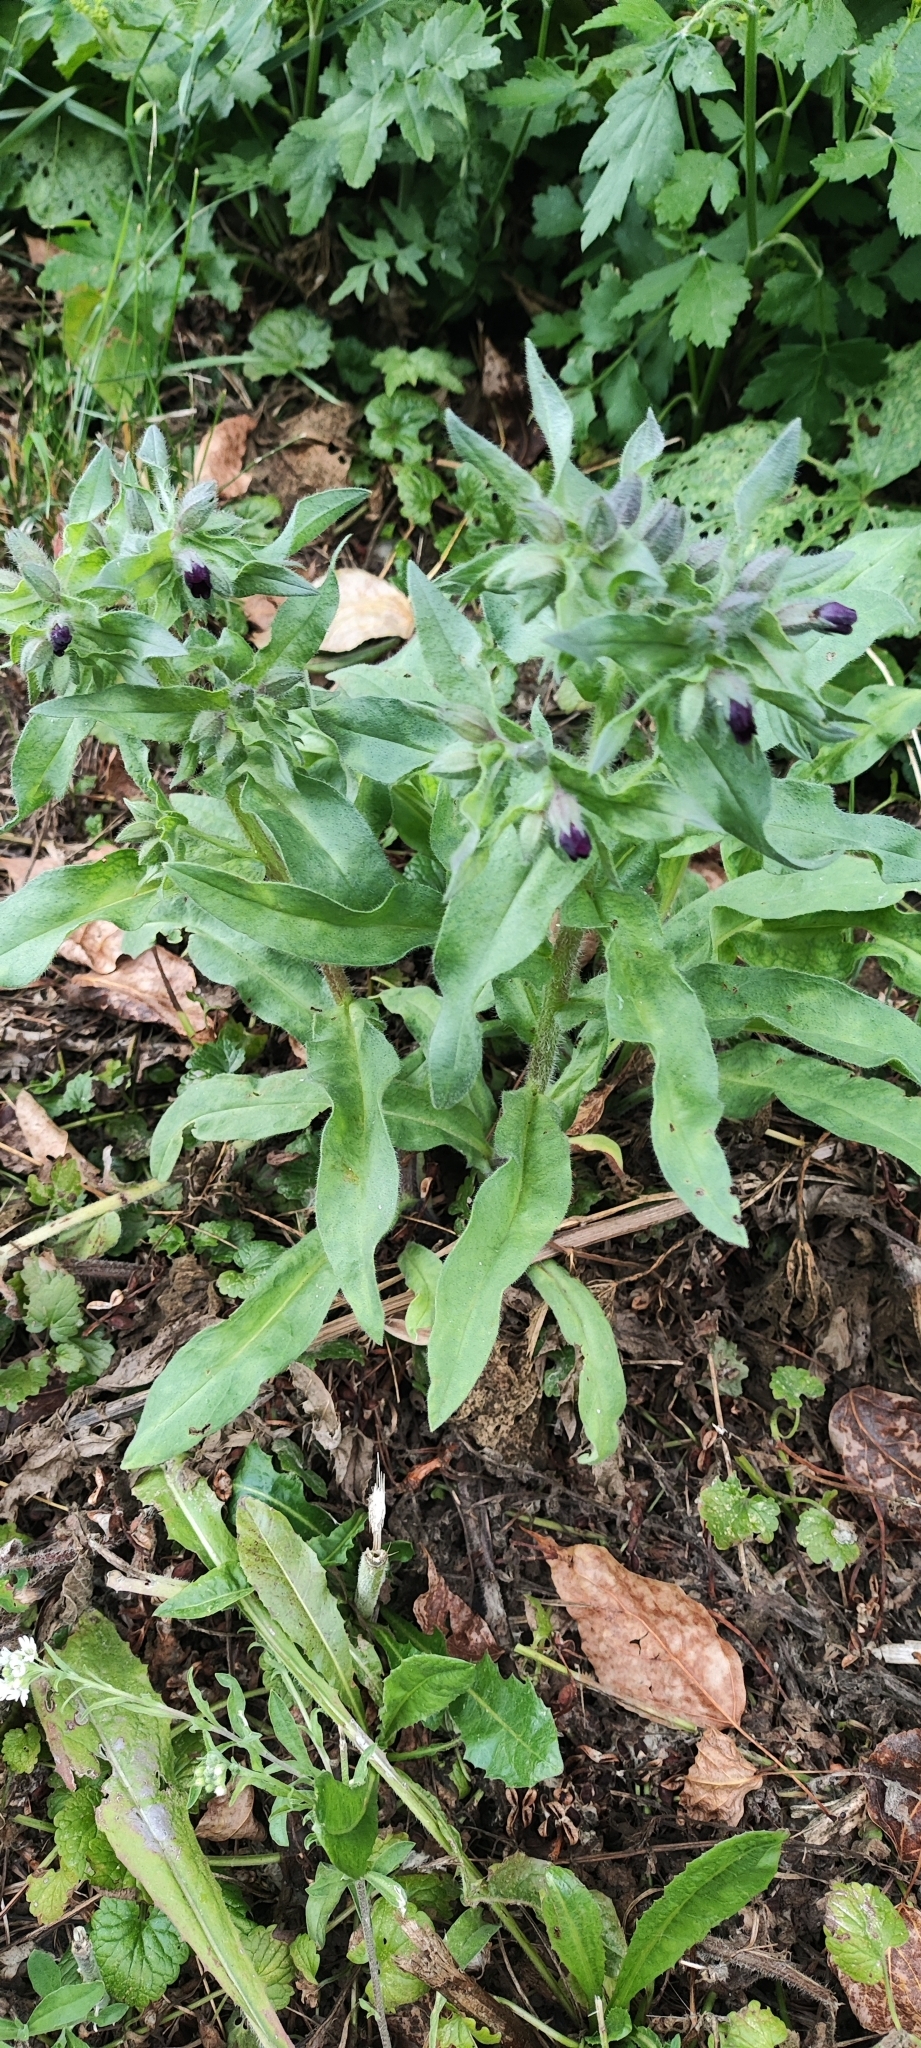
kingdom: Plantae
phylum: Tracheophyta
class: Magnoliopsida
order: Boraginales
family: Boraginaceae
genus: Nonea
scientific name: Nonea pulla
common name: Brown nonea
